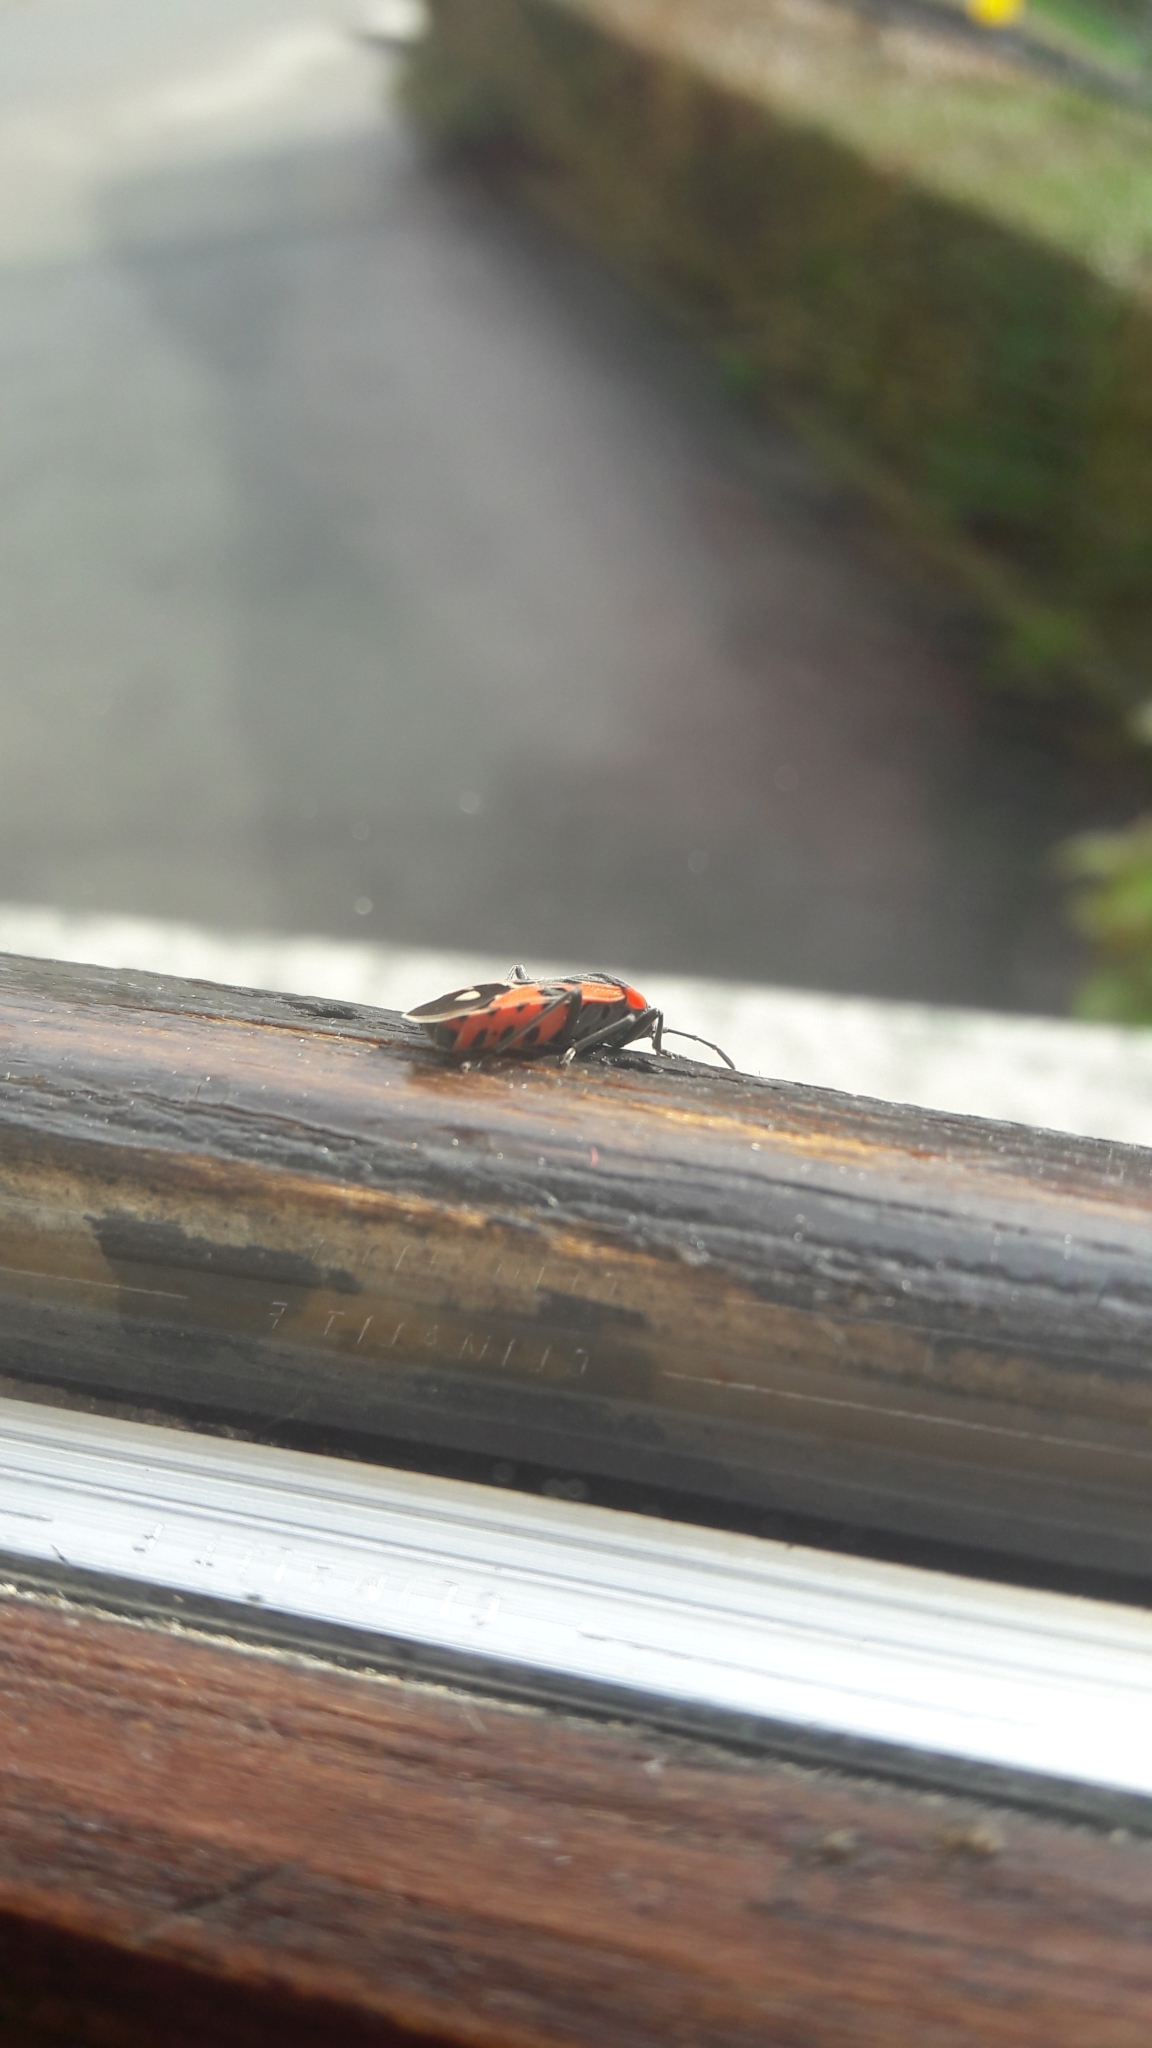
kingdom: Animalia
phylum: Arthropoda
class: Insecta
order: Hemiptera
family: Lygaeidae
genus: Lygaeus
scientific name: Lygaeus equestris
